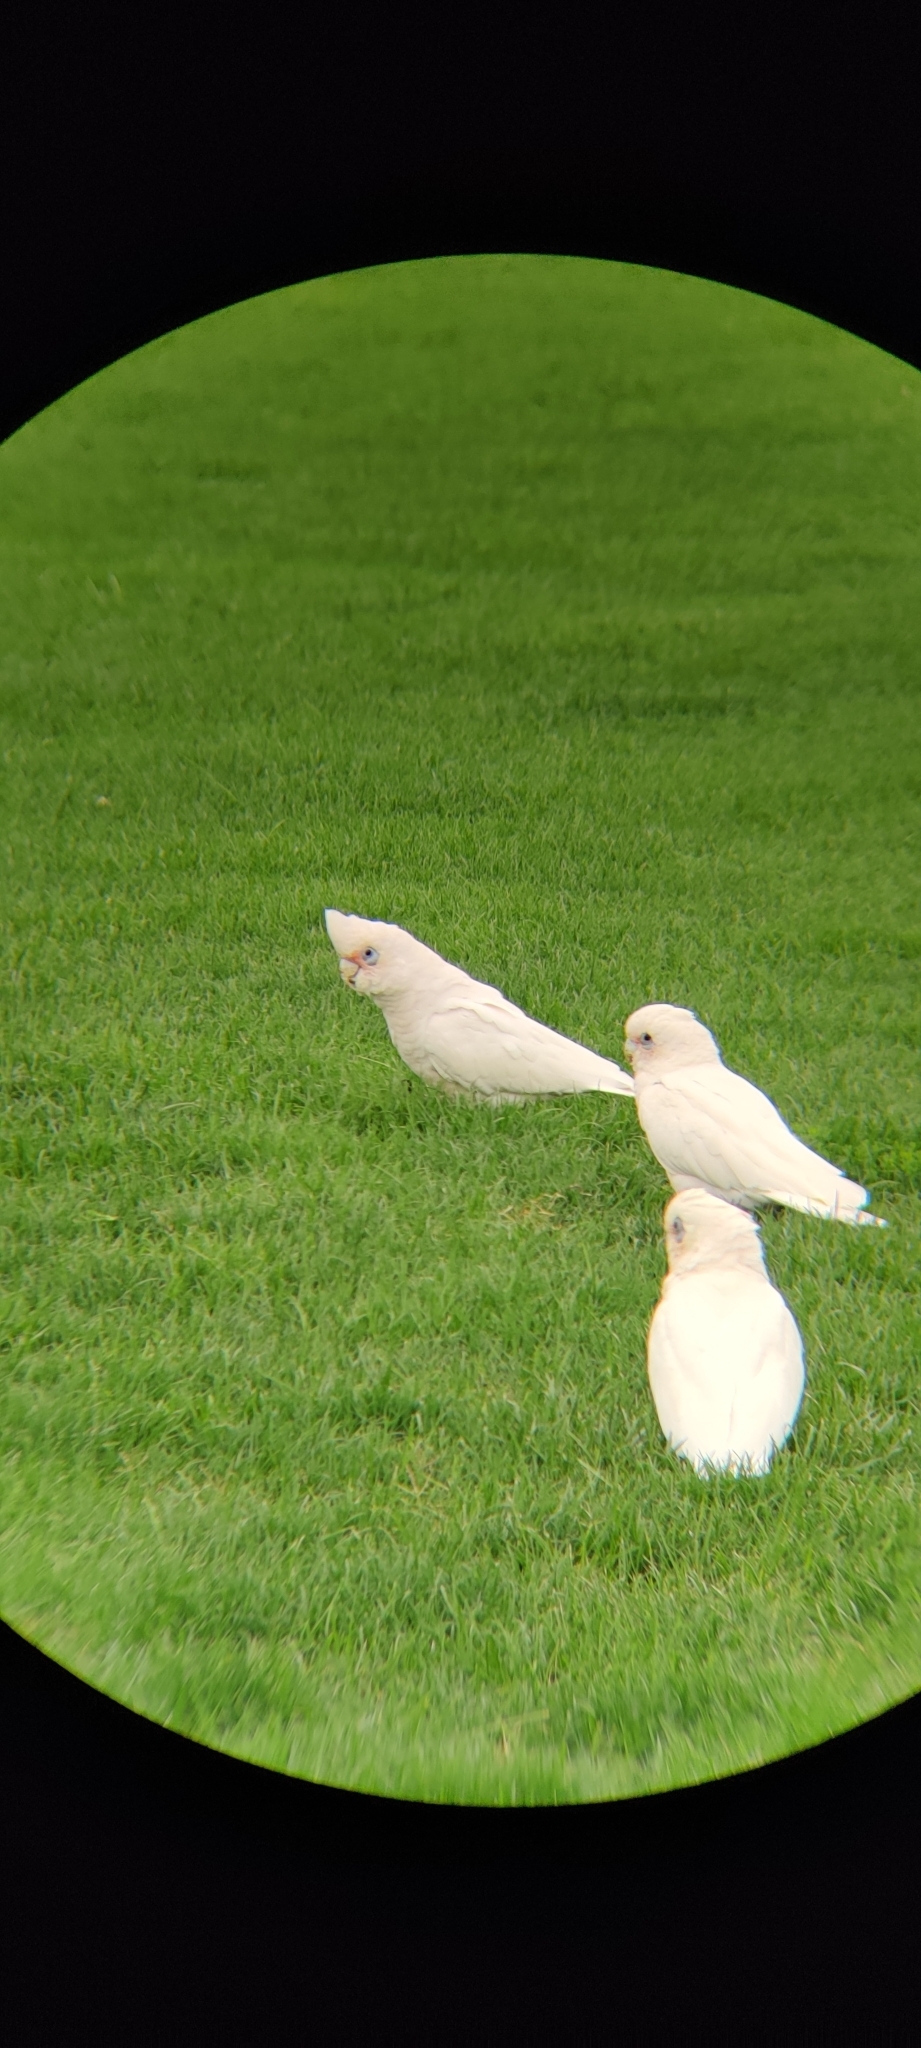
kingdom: Animalia
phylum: Chordata
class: Aves
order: Psittaciformes
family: Psittacidae
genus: Cacatua
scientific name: Cacatua sanguinea
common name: Little corella
